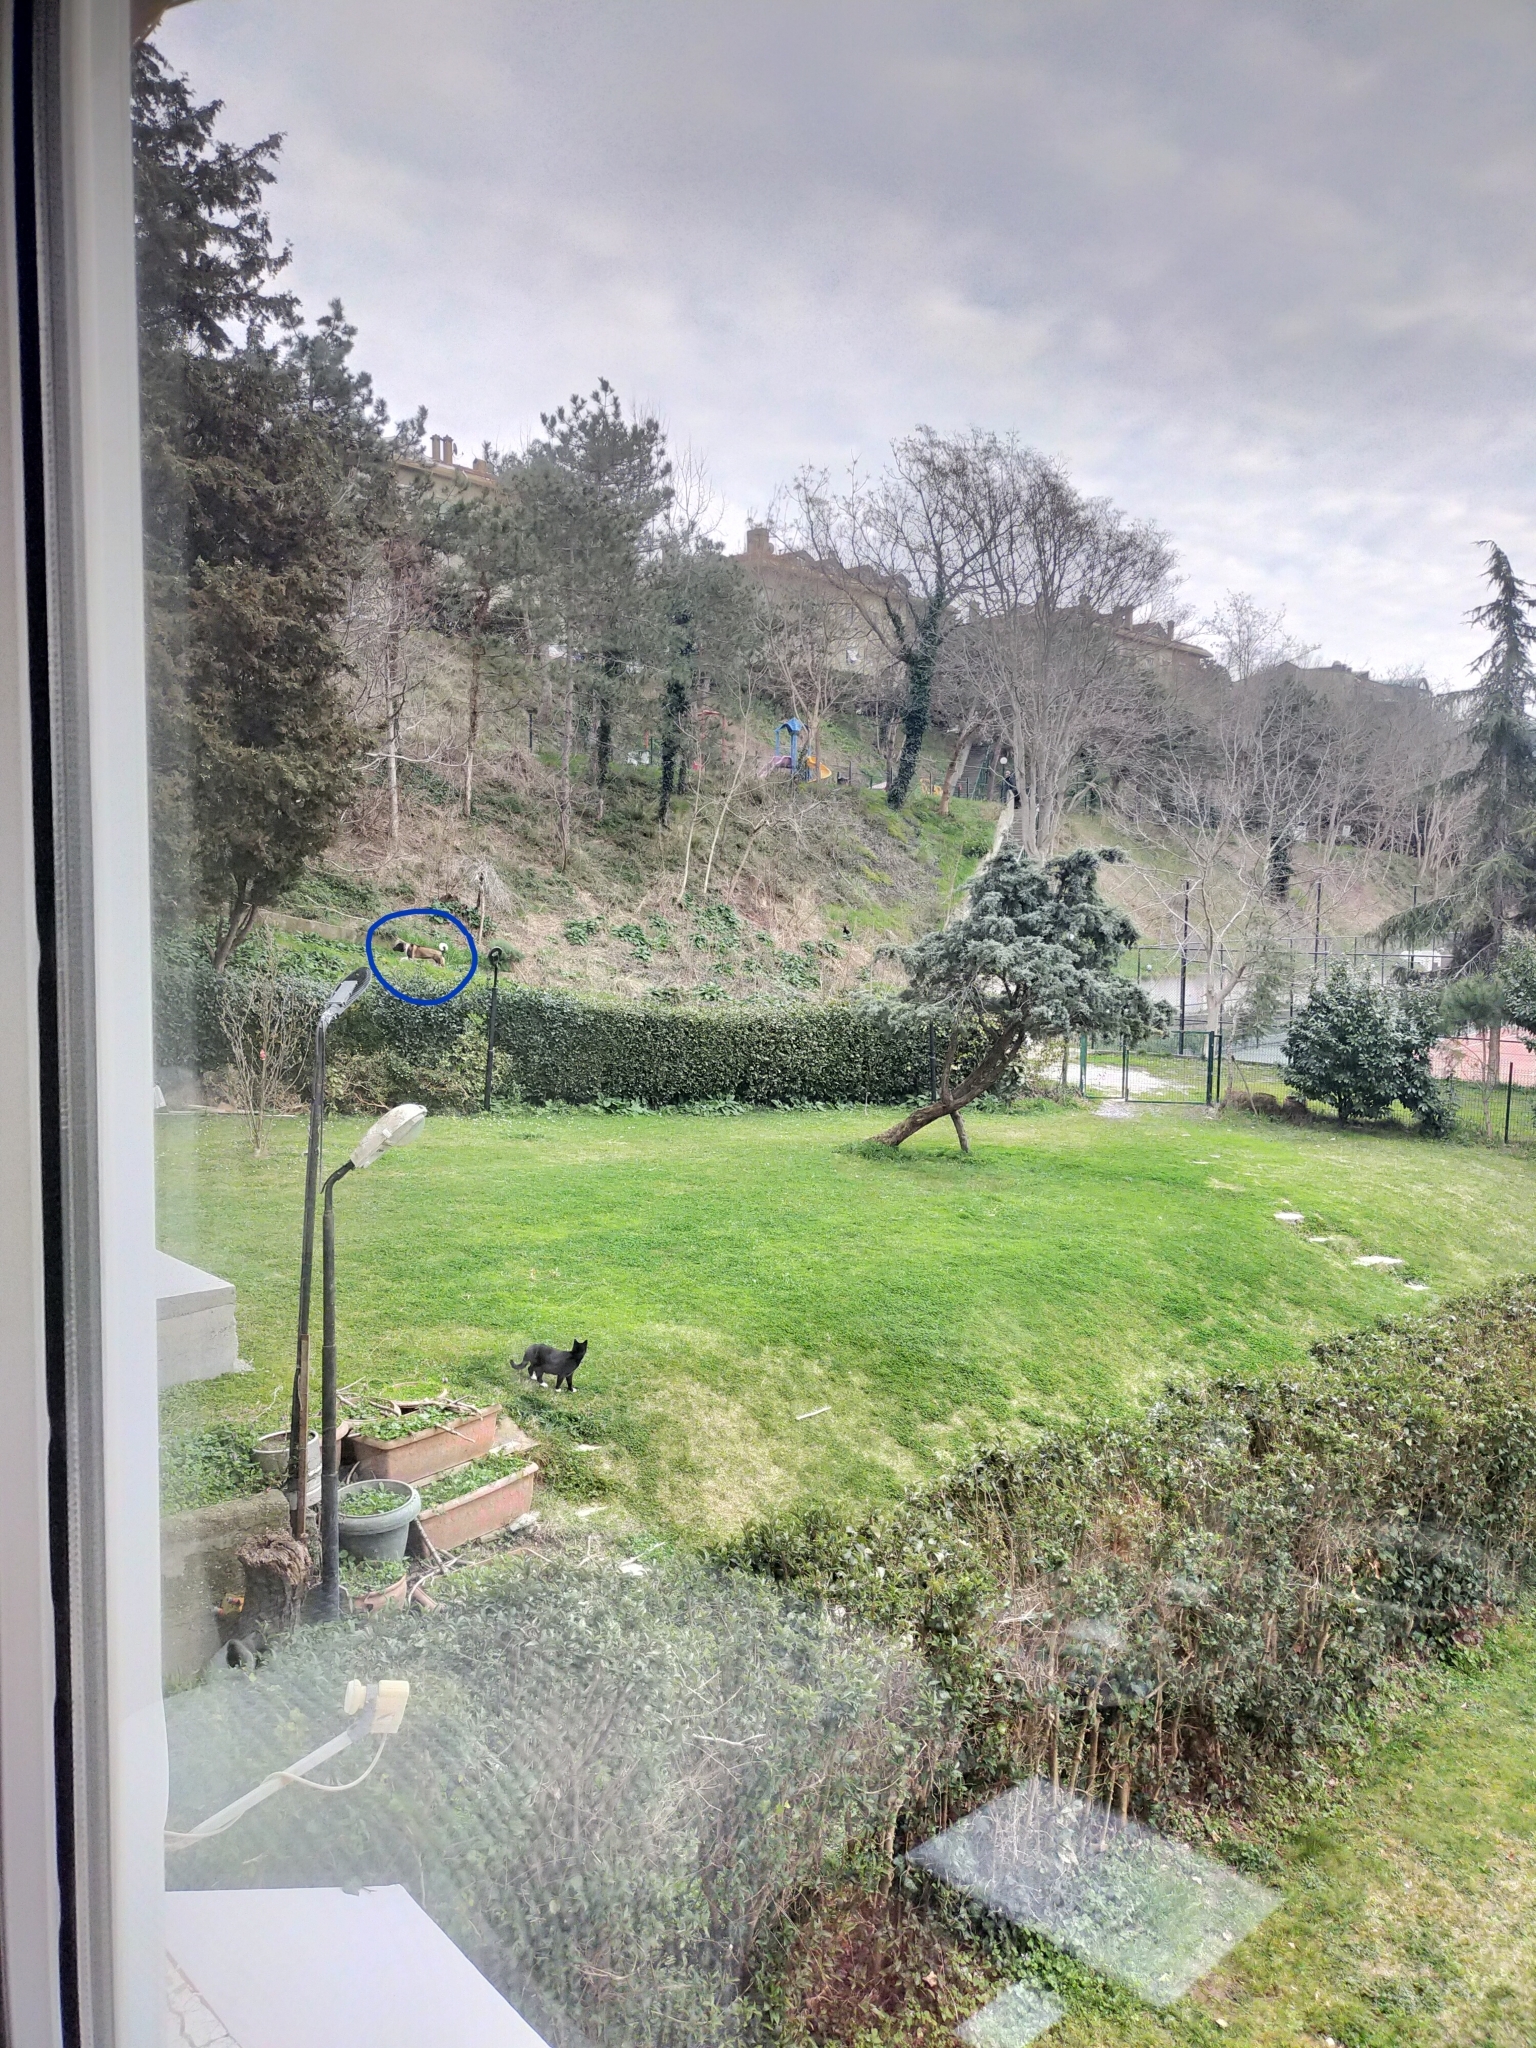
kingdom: Animalia
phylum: Chordata
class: Mammalia
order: Carnivora
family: Canidae
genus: Canis
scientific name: Canis lupus
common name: Gray wolf
